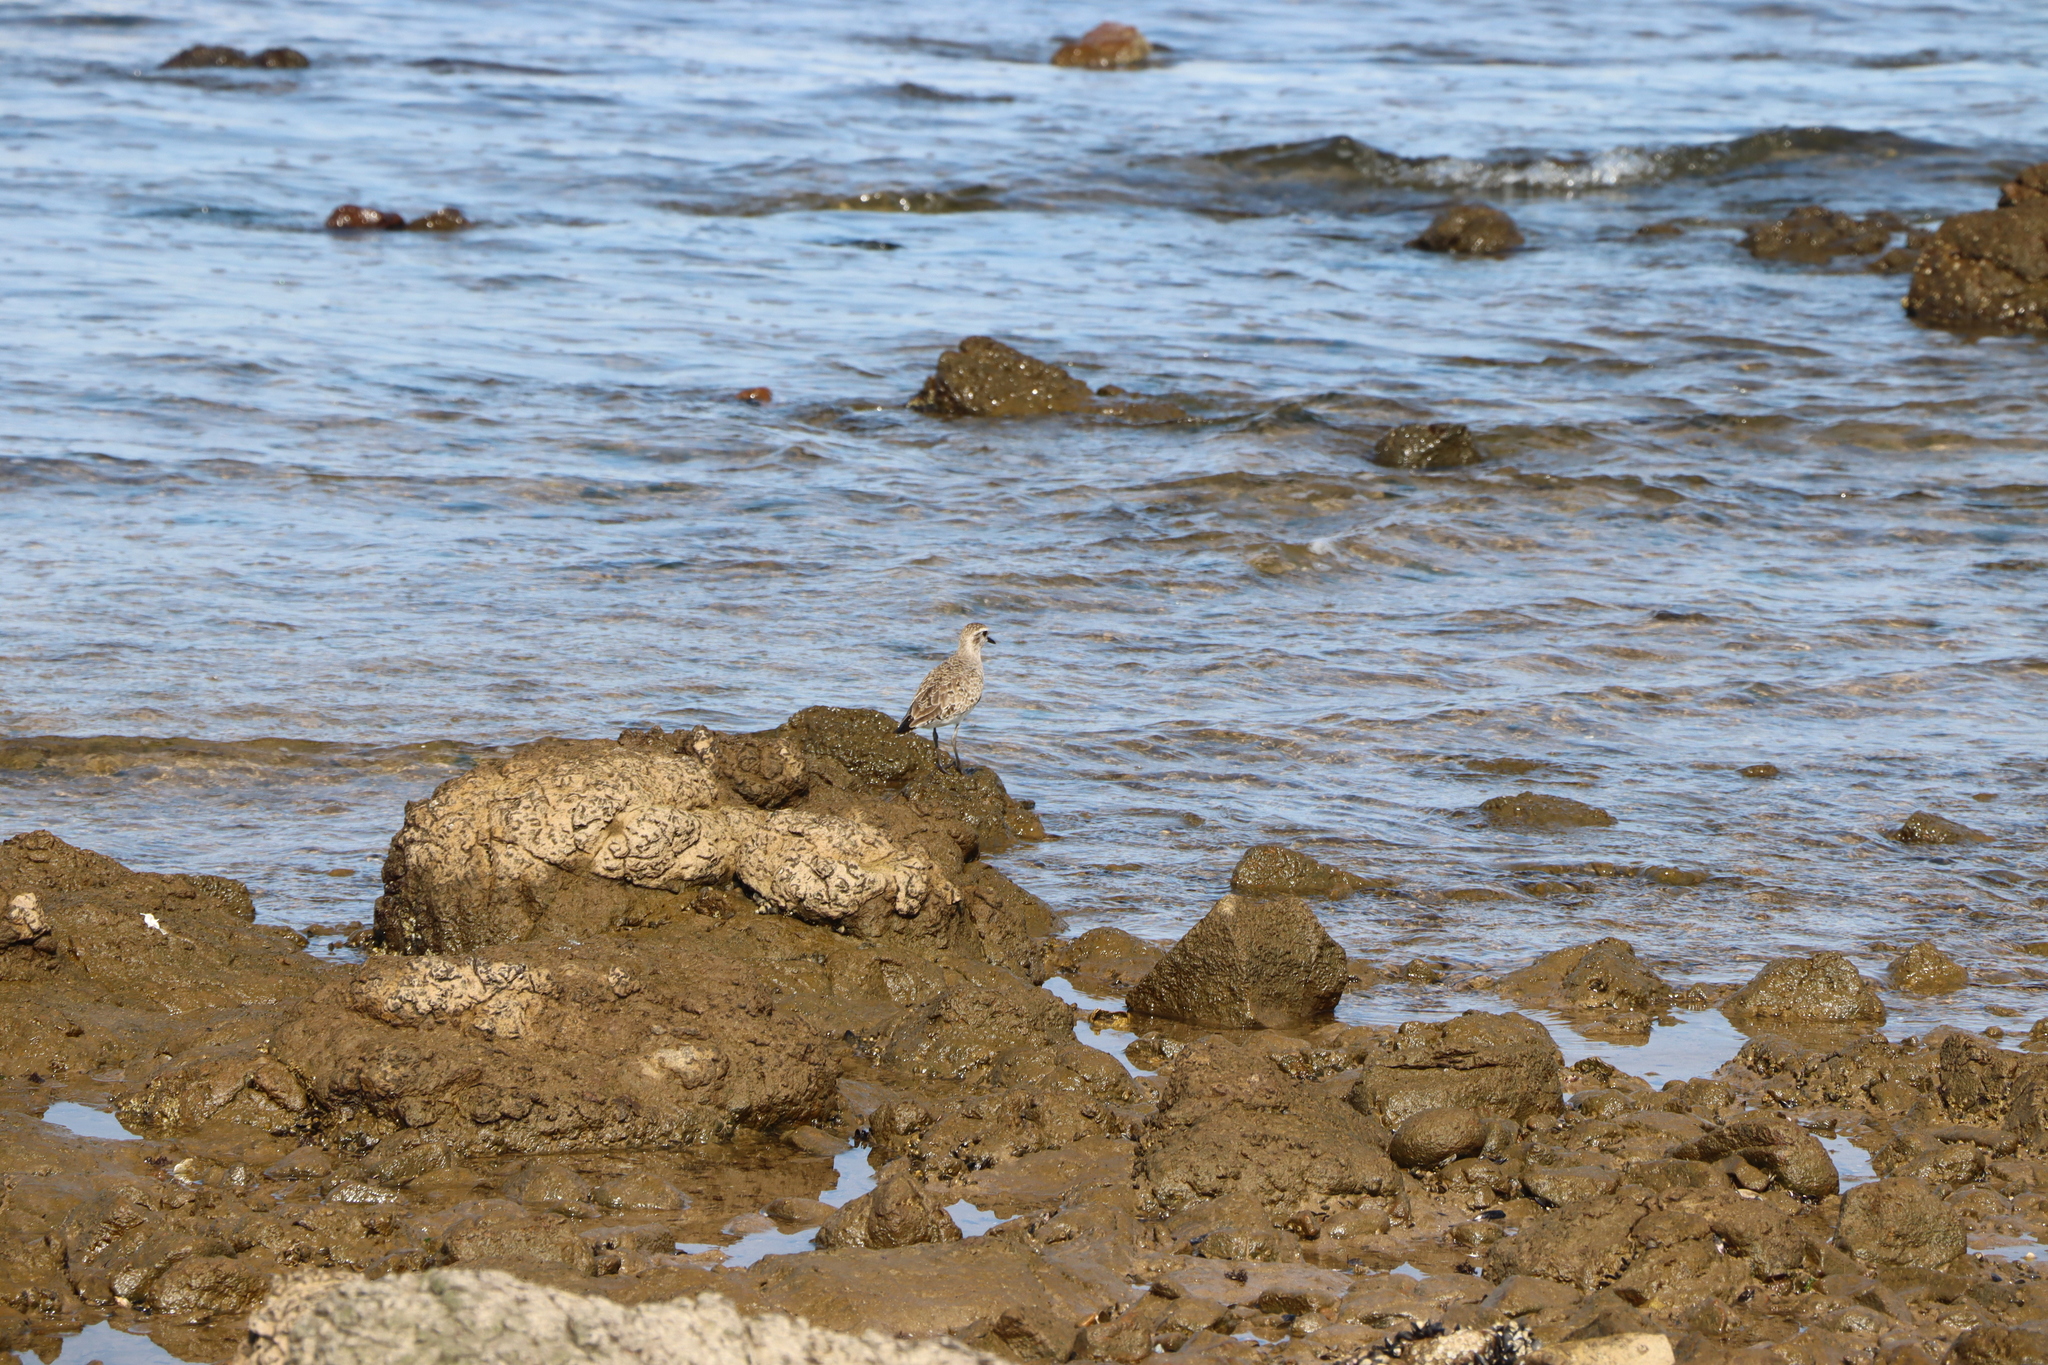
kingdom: Animalia
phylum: Chordata
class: Aves
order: Charadriiformes
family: Charadriidae
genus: Pluvialis
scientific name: Pluvialis dominica
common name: American golden plover
